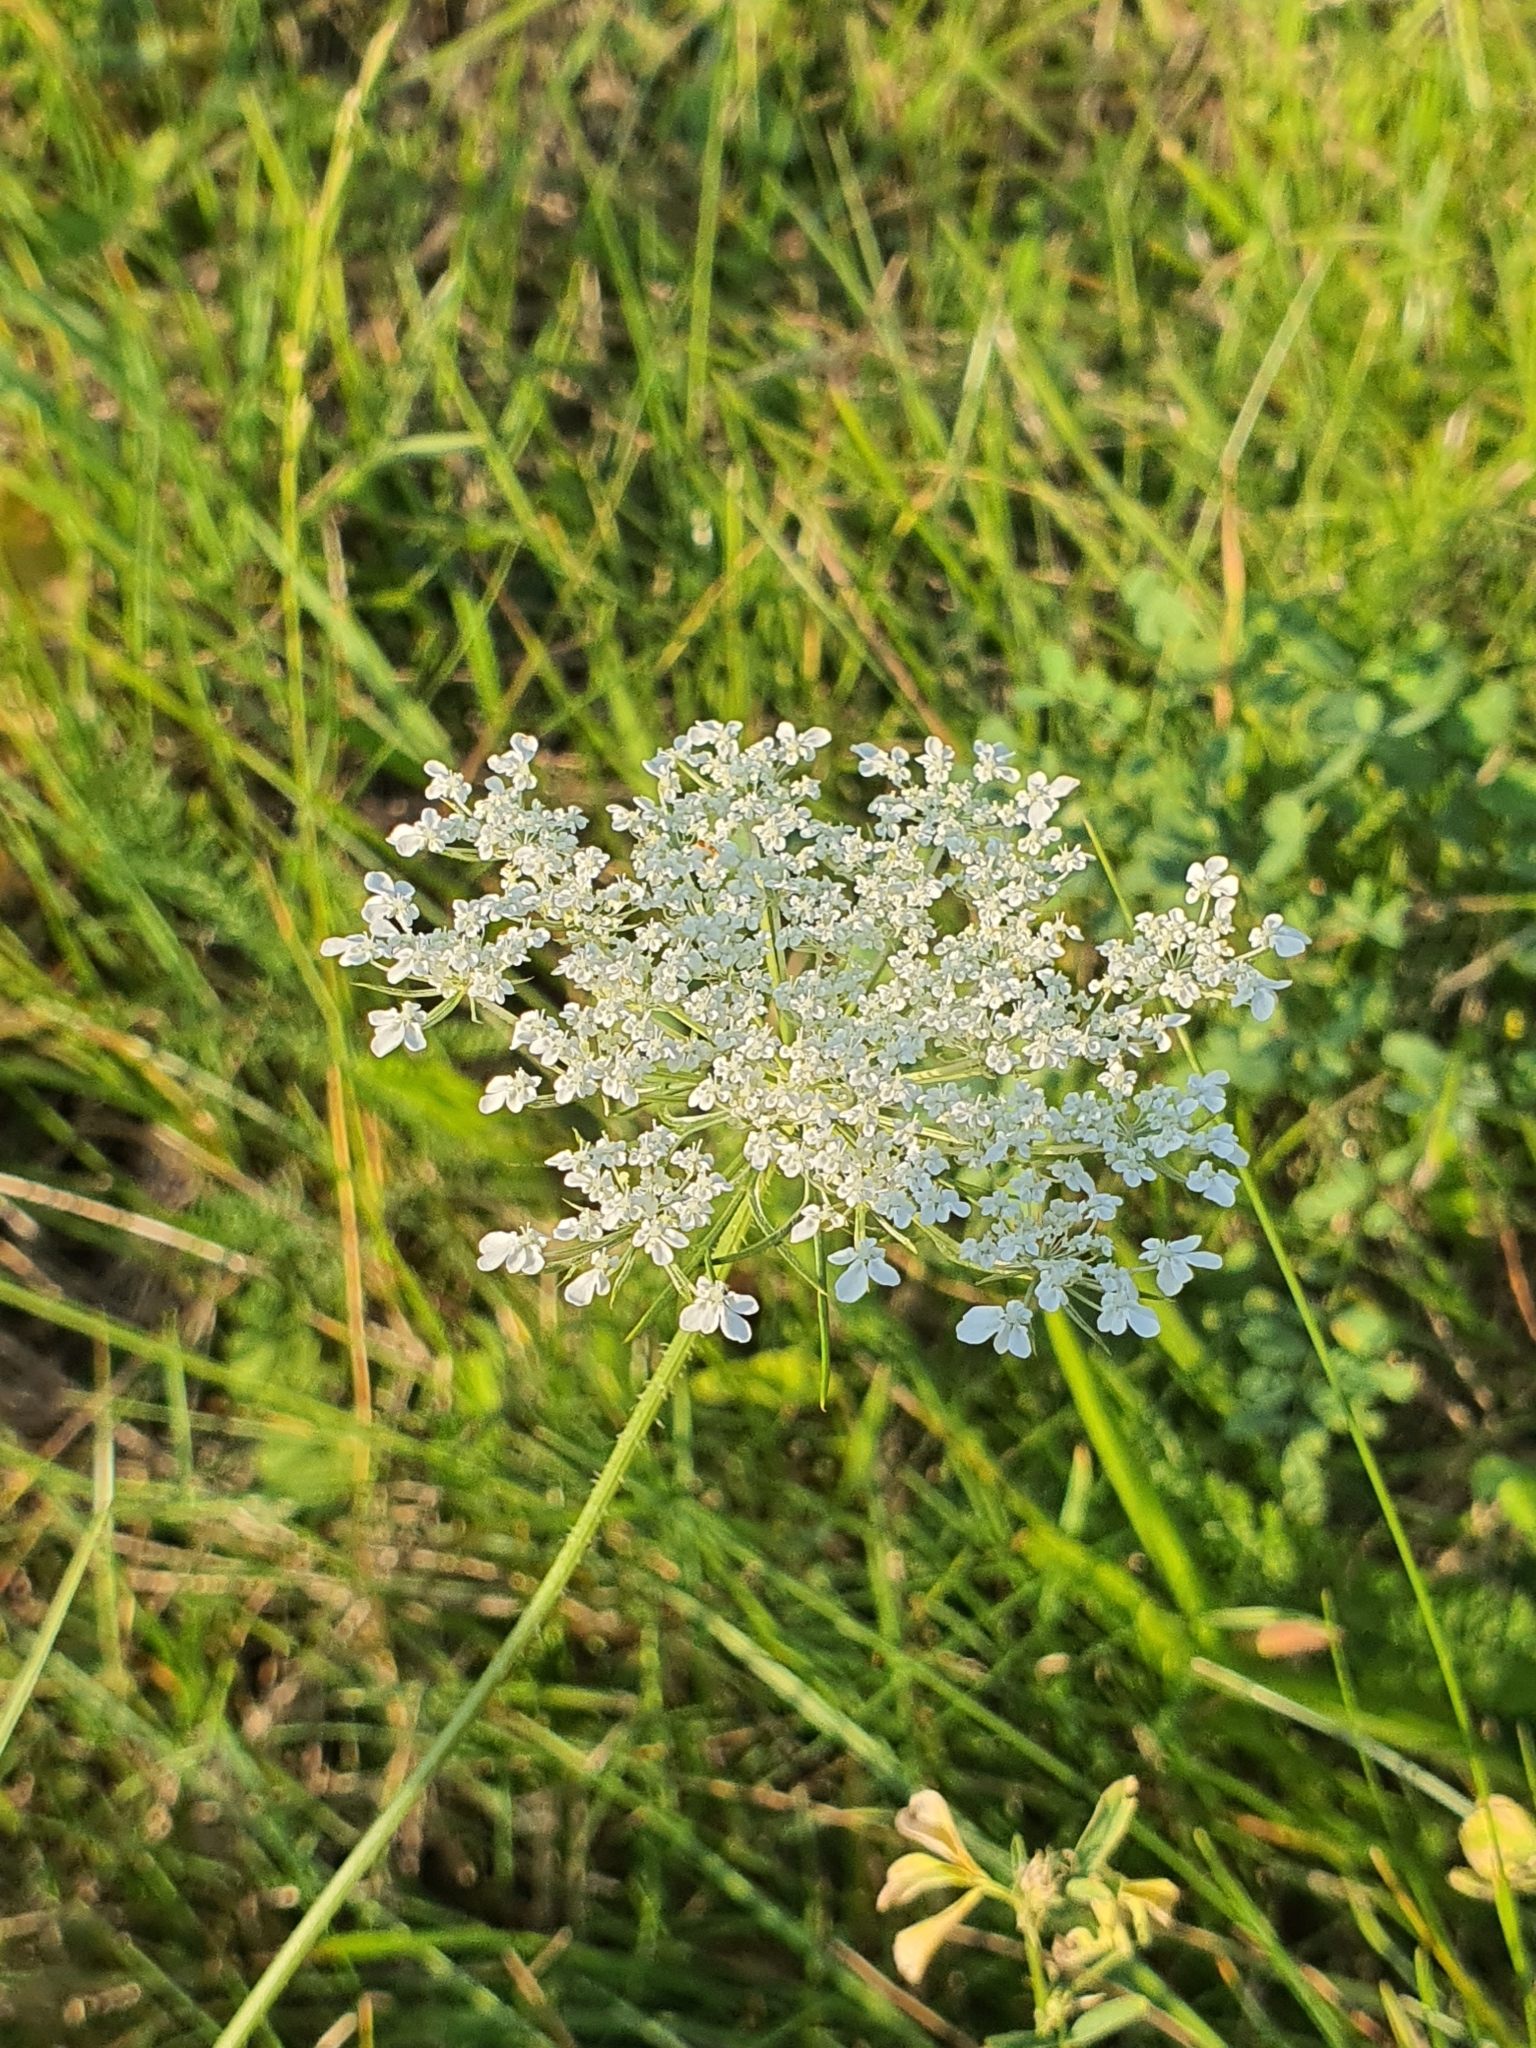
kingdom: Plantae
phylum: Tracheophyta
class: Magnoliopsida
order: Apiales
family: Apiaceae
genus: Daucus
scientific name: Daucus carota
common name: Wild carrot
